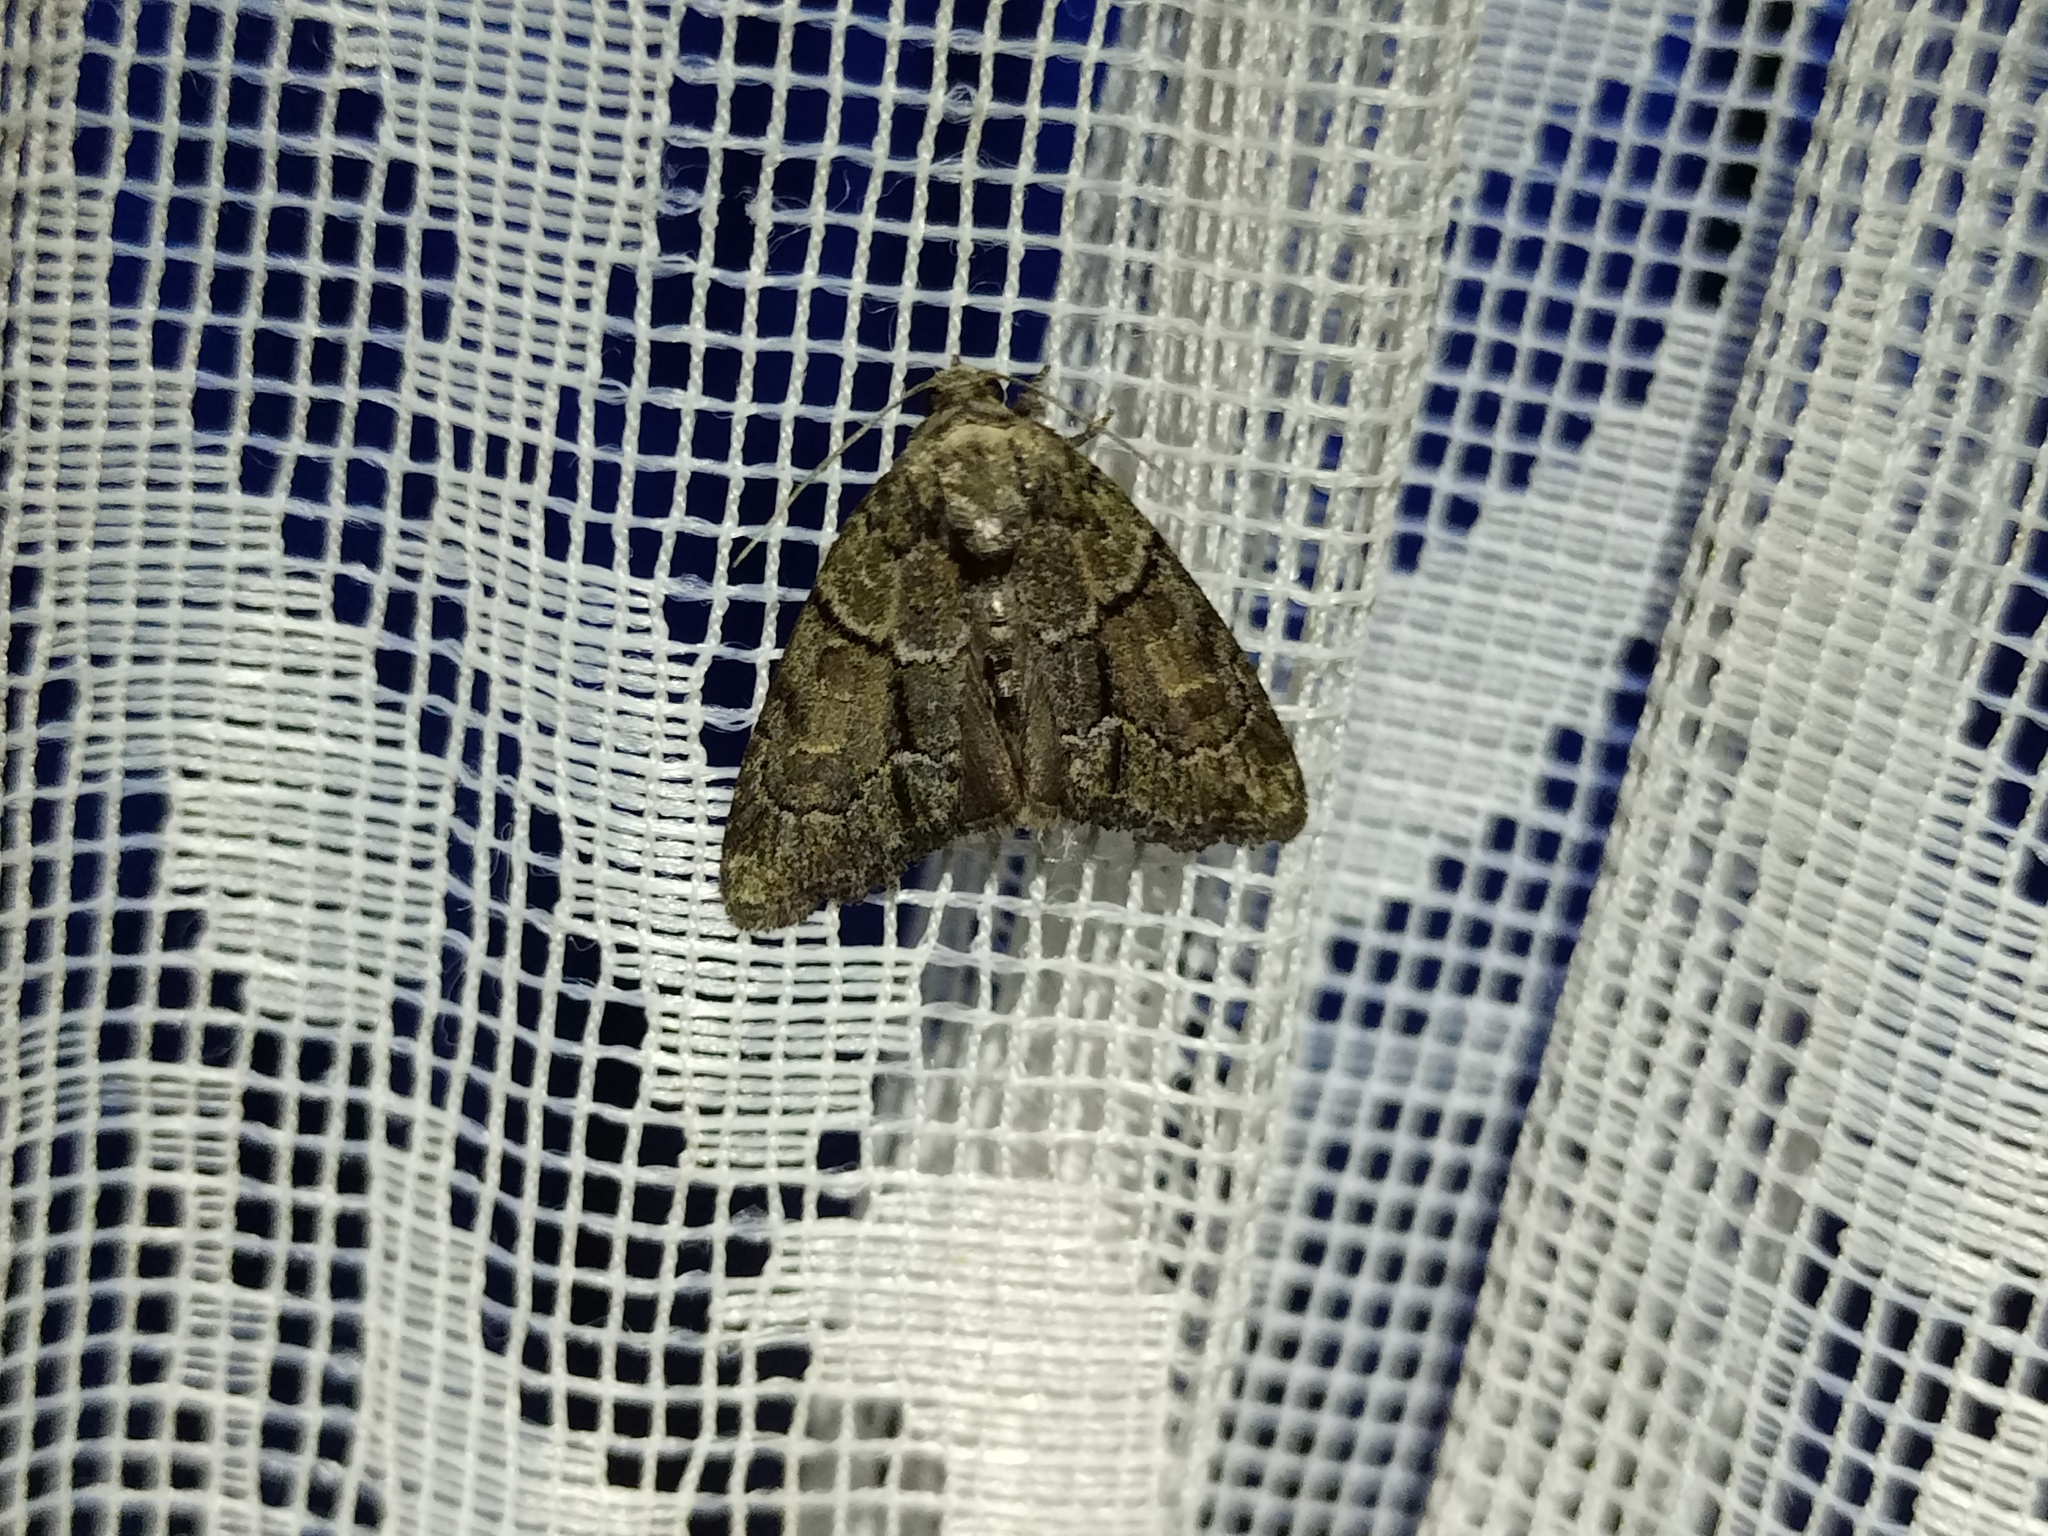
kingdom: Animalia
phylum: Arthropoda
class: Insecta
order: Lepidoptera
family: Noctuidae
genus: Cryphia
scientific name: Cryphia fraudatricula
